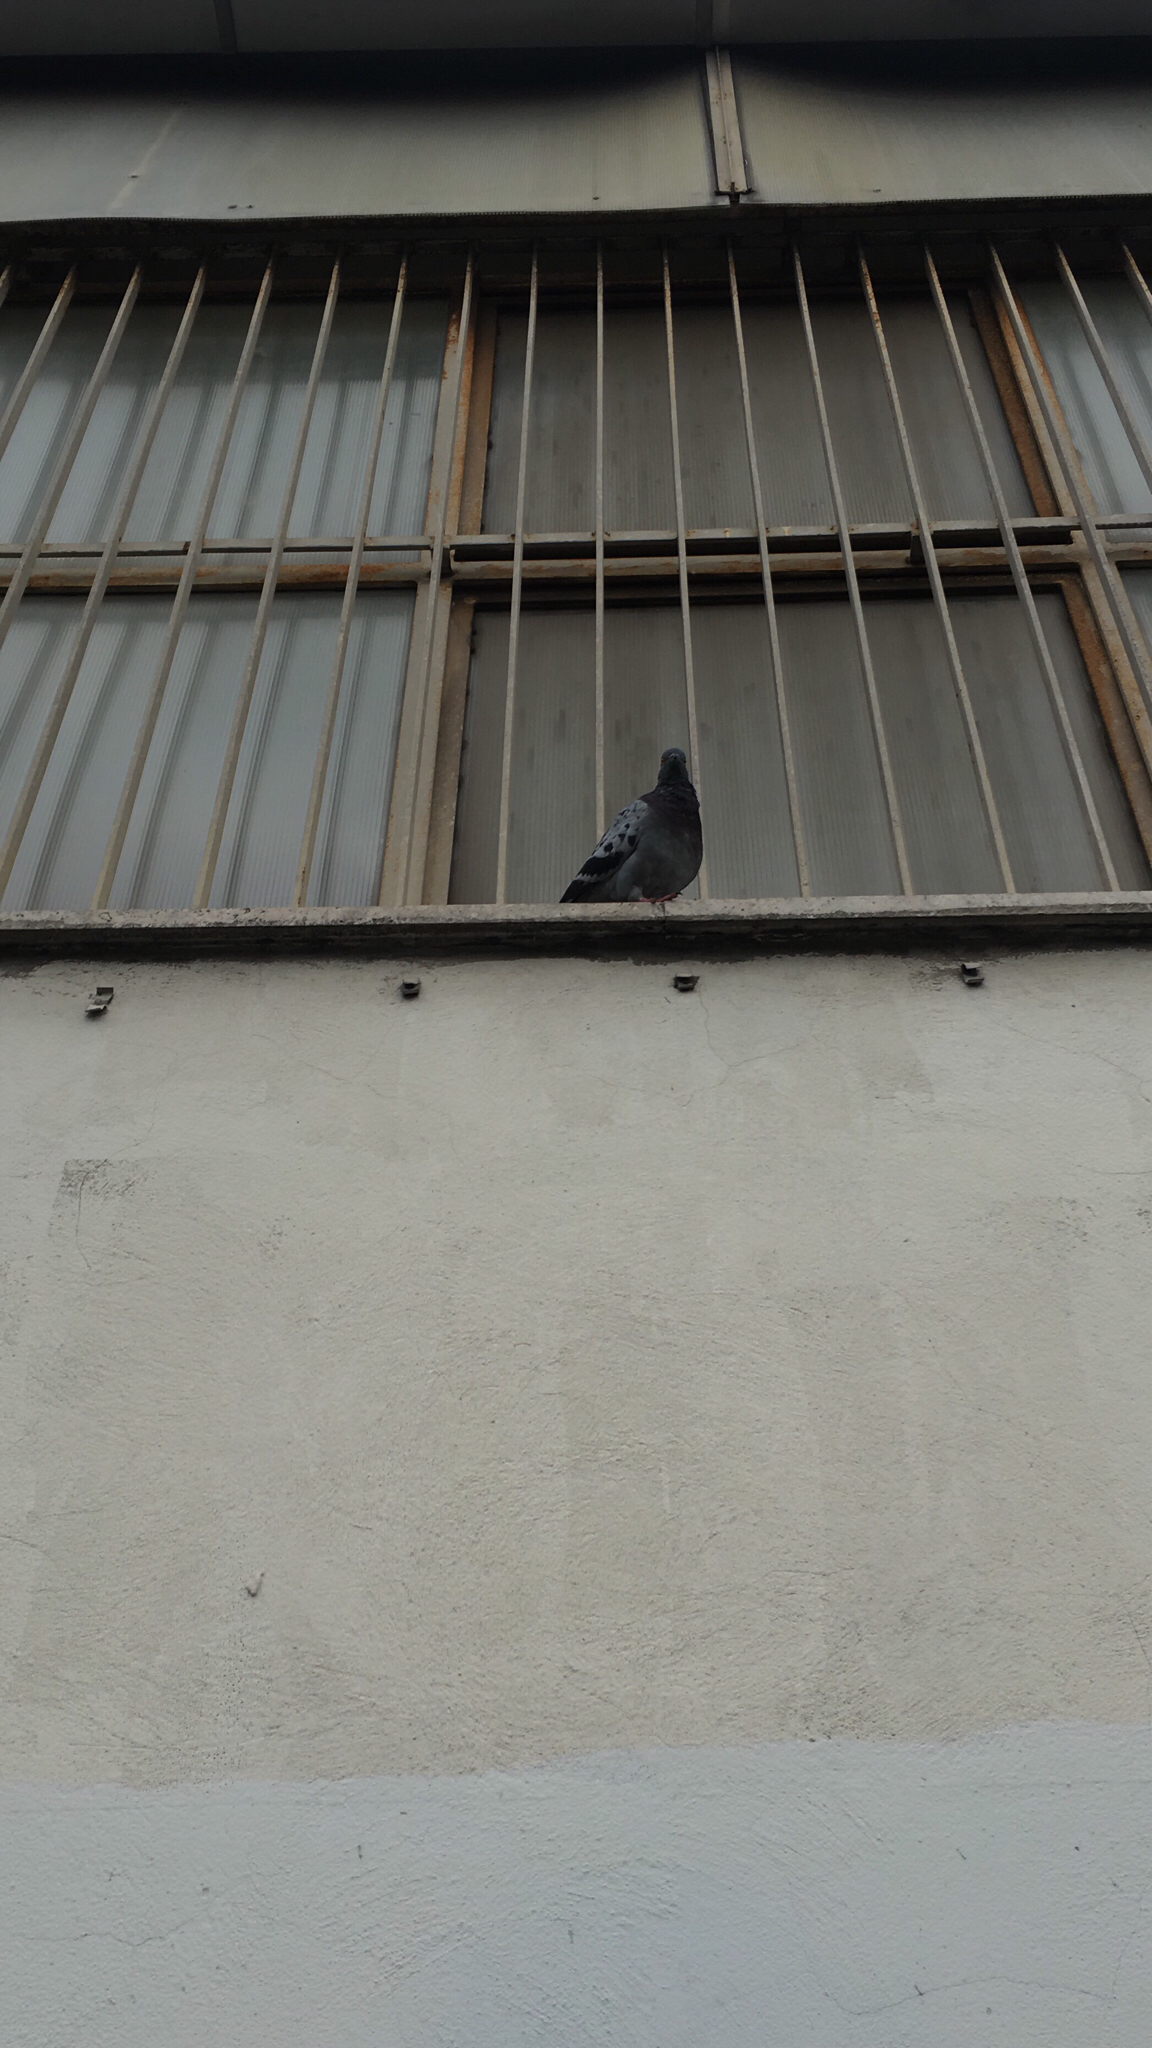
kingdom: Animalia
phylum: Chordata
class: Aves
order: Columbiformes
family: Columbidae
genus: Columba
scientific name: Columba livia
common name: Rock pigeon
